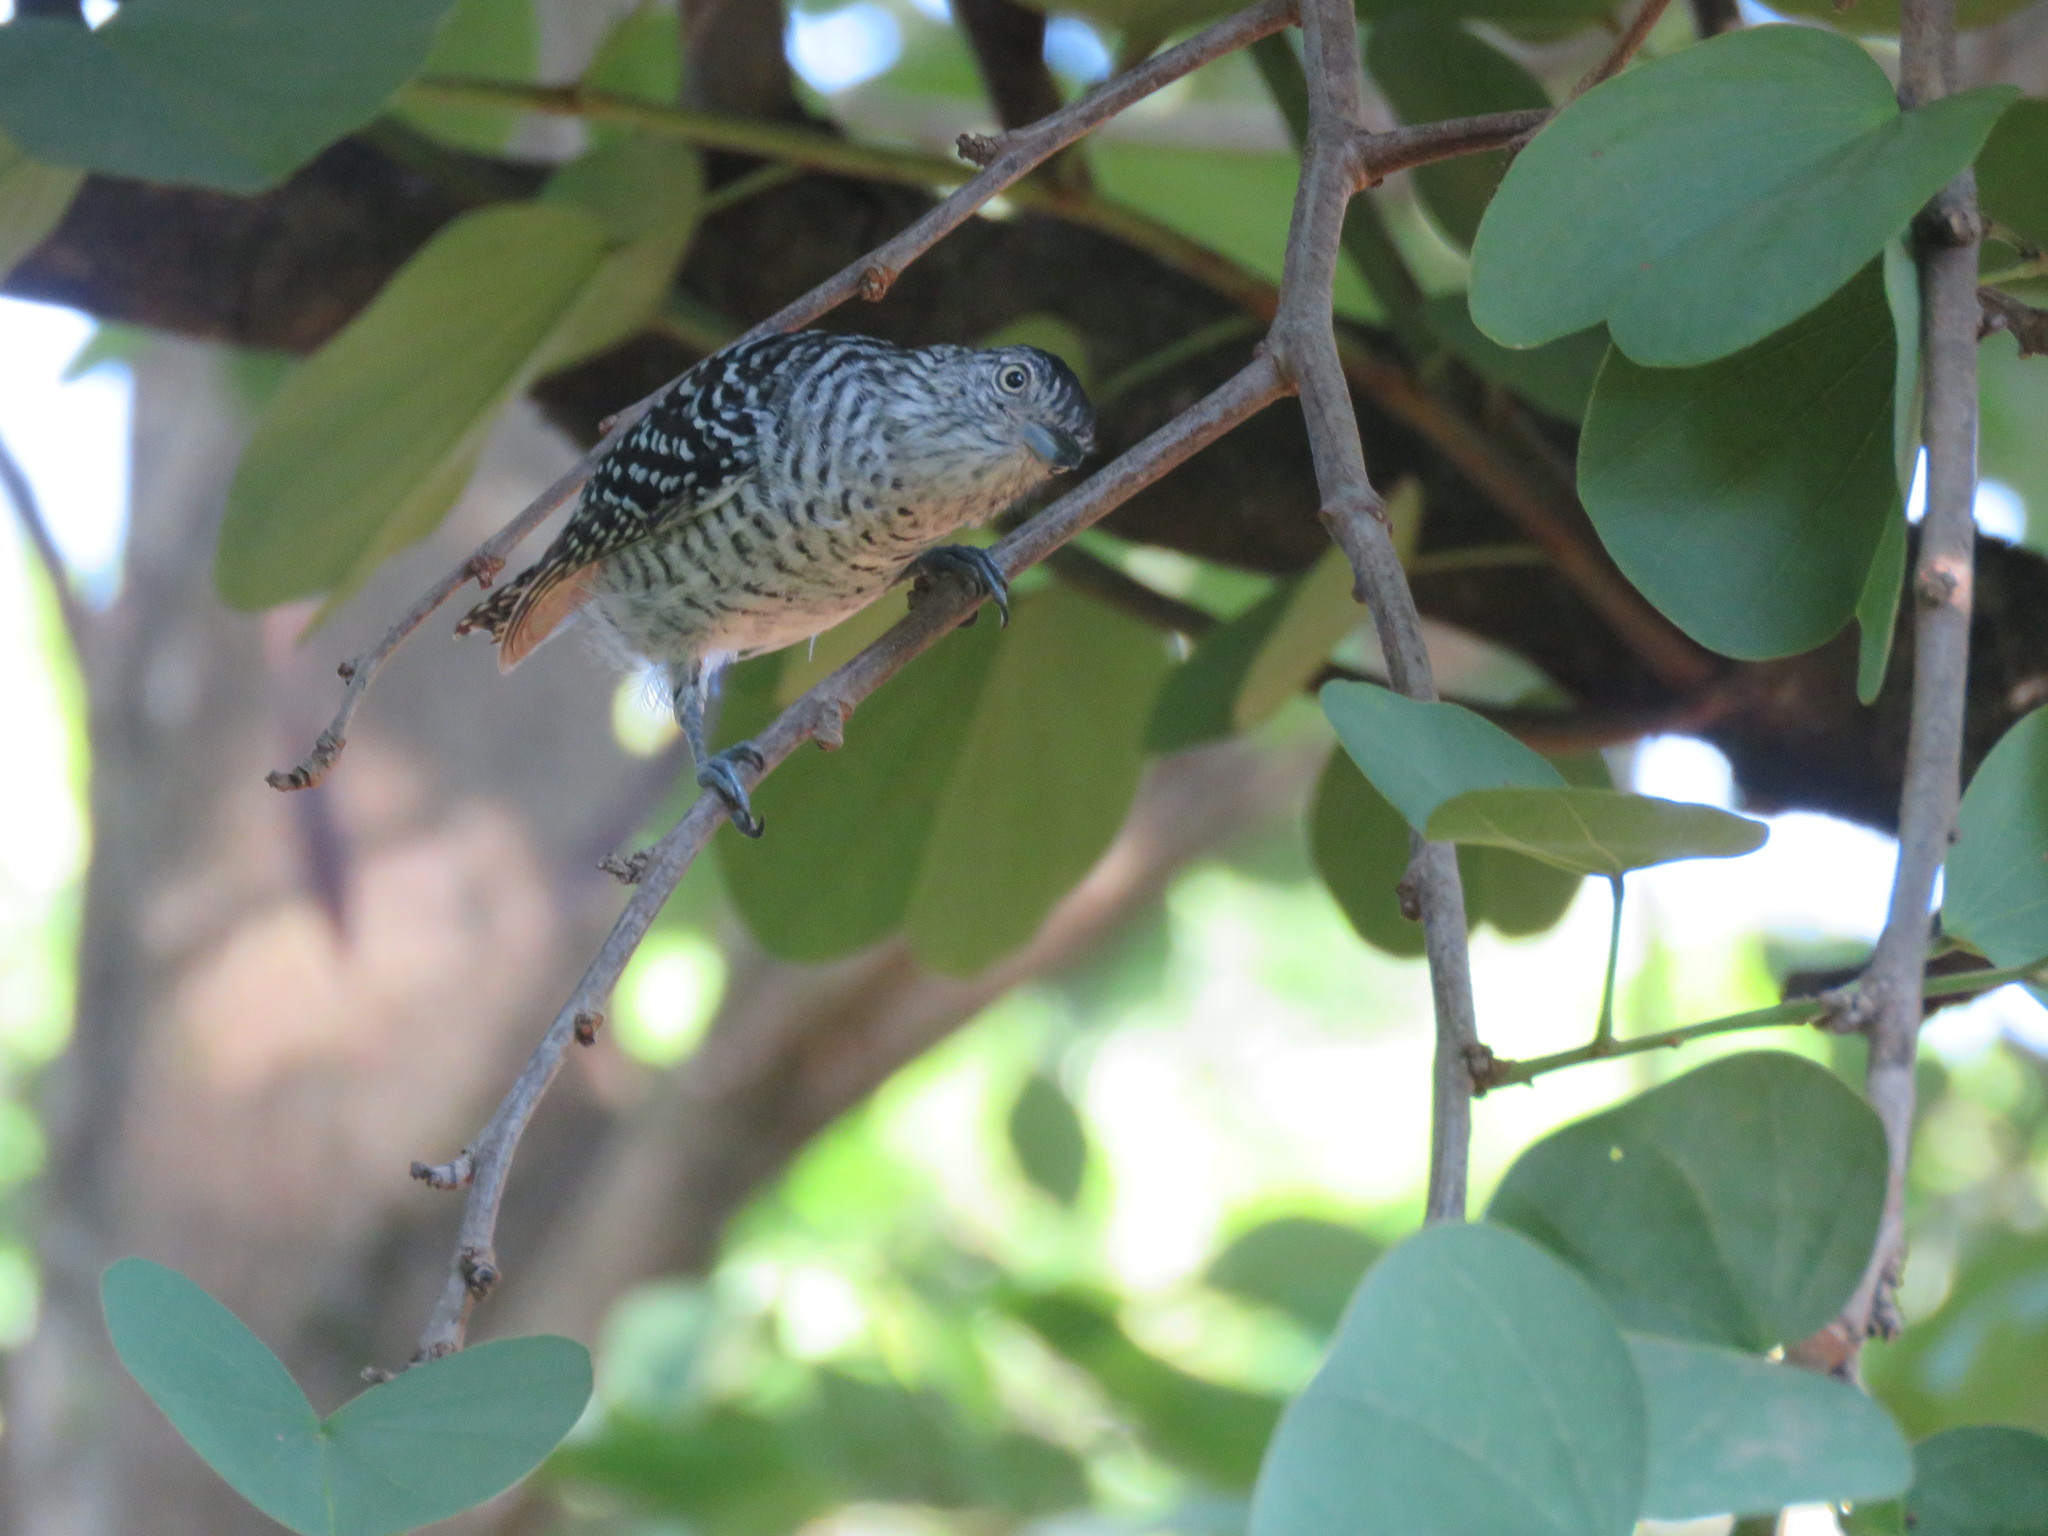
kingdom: Animalia
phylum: Chordata
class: Aves
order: Passeriformes
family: Thamnophilidae
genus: Thamnophilus
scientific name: Thamnophilus doliatus
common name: Barred antshrike
